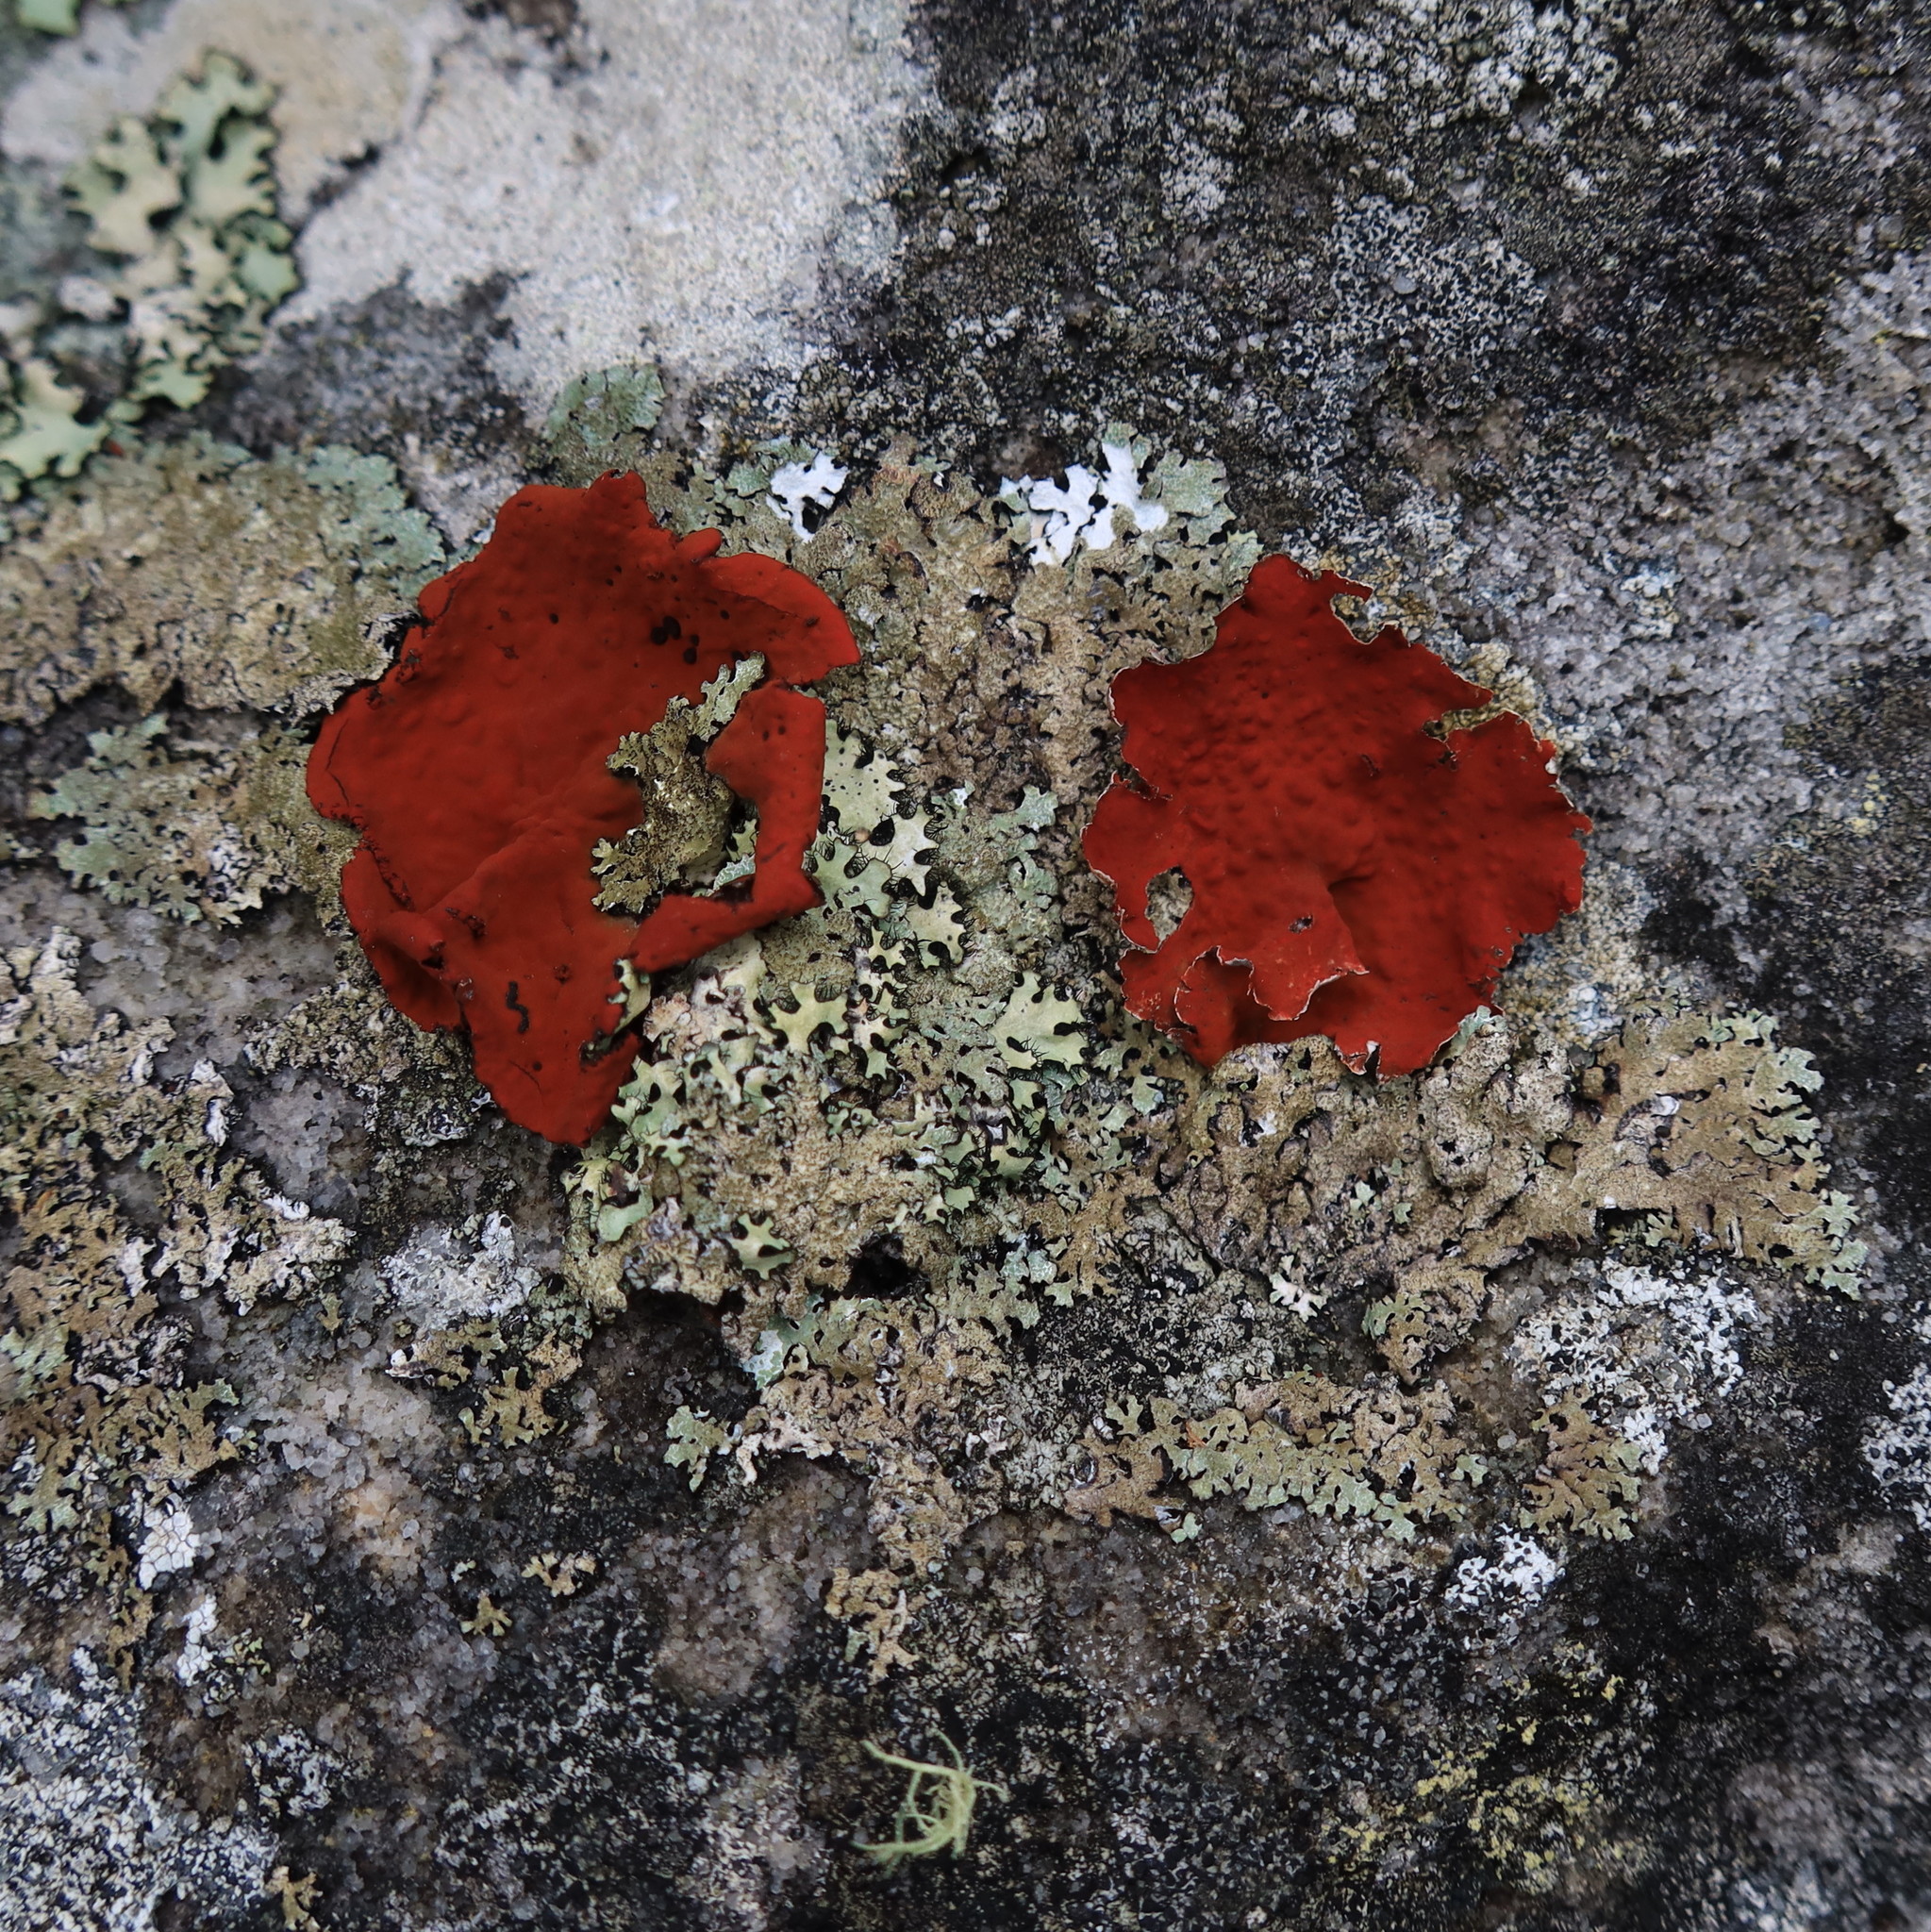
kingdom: Fungi
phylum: Ascomycota
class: Lecanoromycetes
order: Umbilicariales
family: Umbilicariaceae
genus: Lasallia
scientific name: Lasallia rubiginosa
